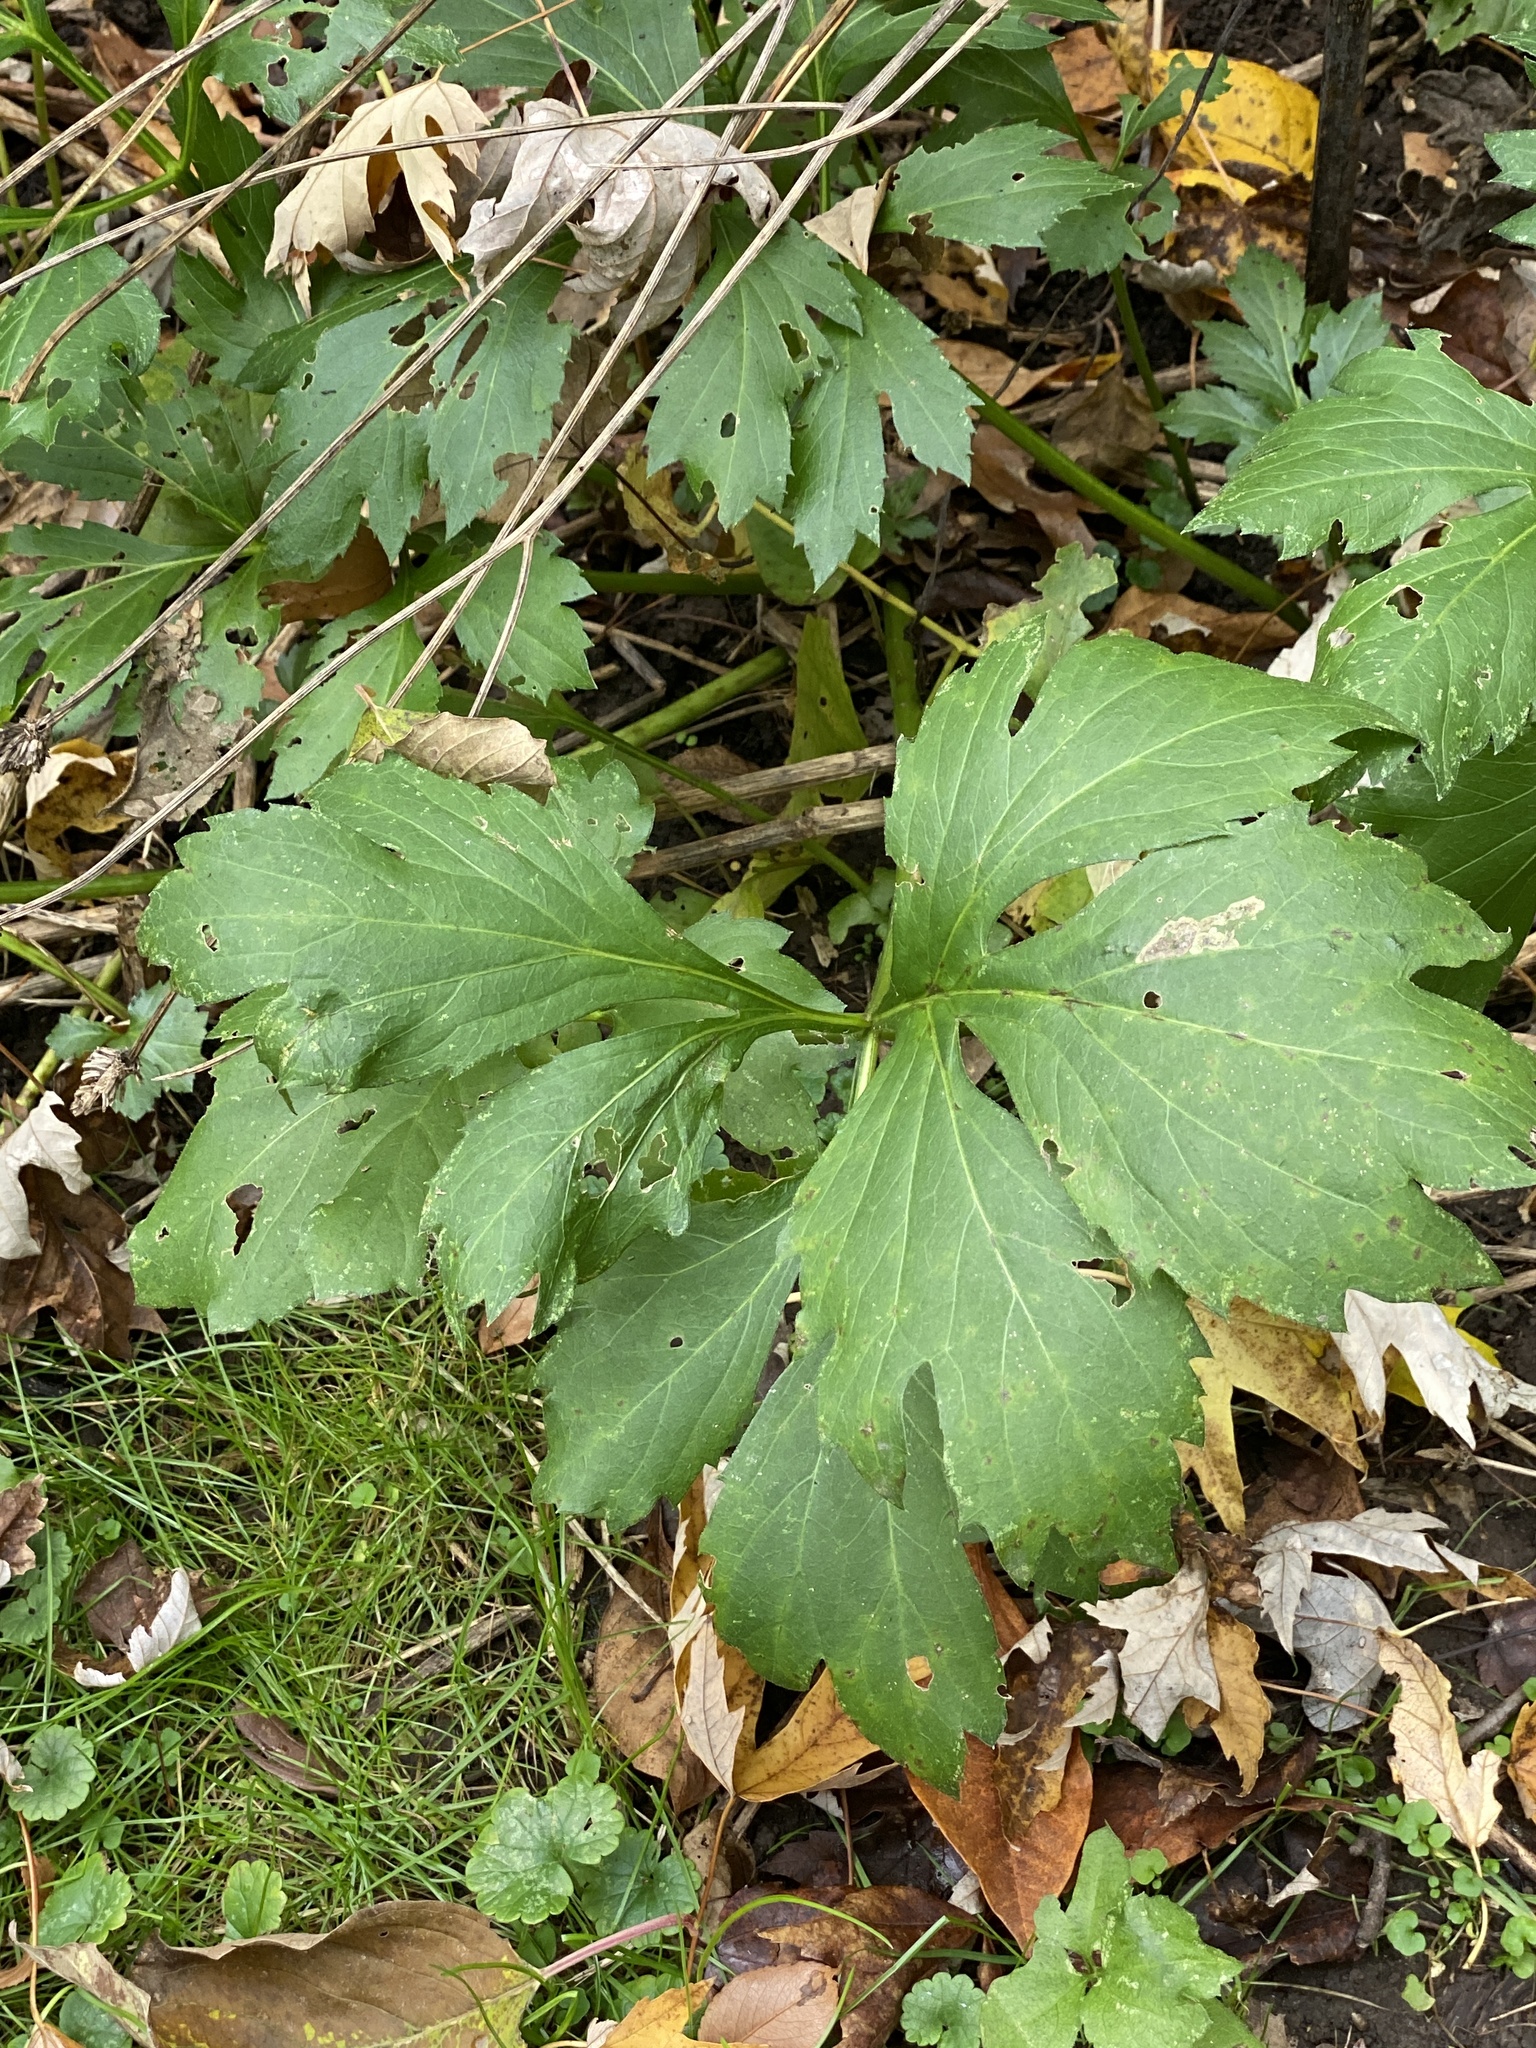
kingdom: Plantae
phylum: Tracheophyta
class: Magnoliopsida
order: Asterales
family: Asteraceae
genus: Rudbeckia
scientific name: Rudbeckia laciniata
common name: Coneflower
